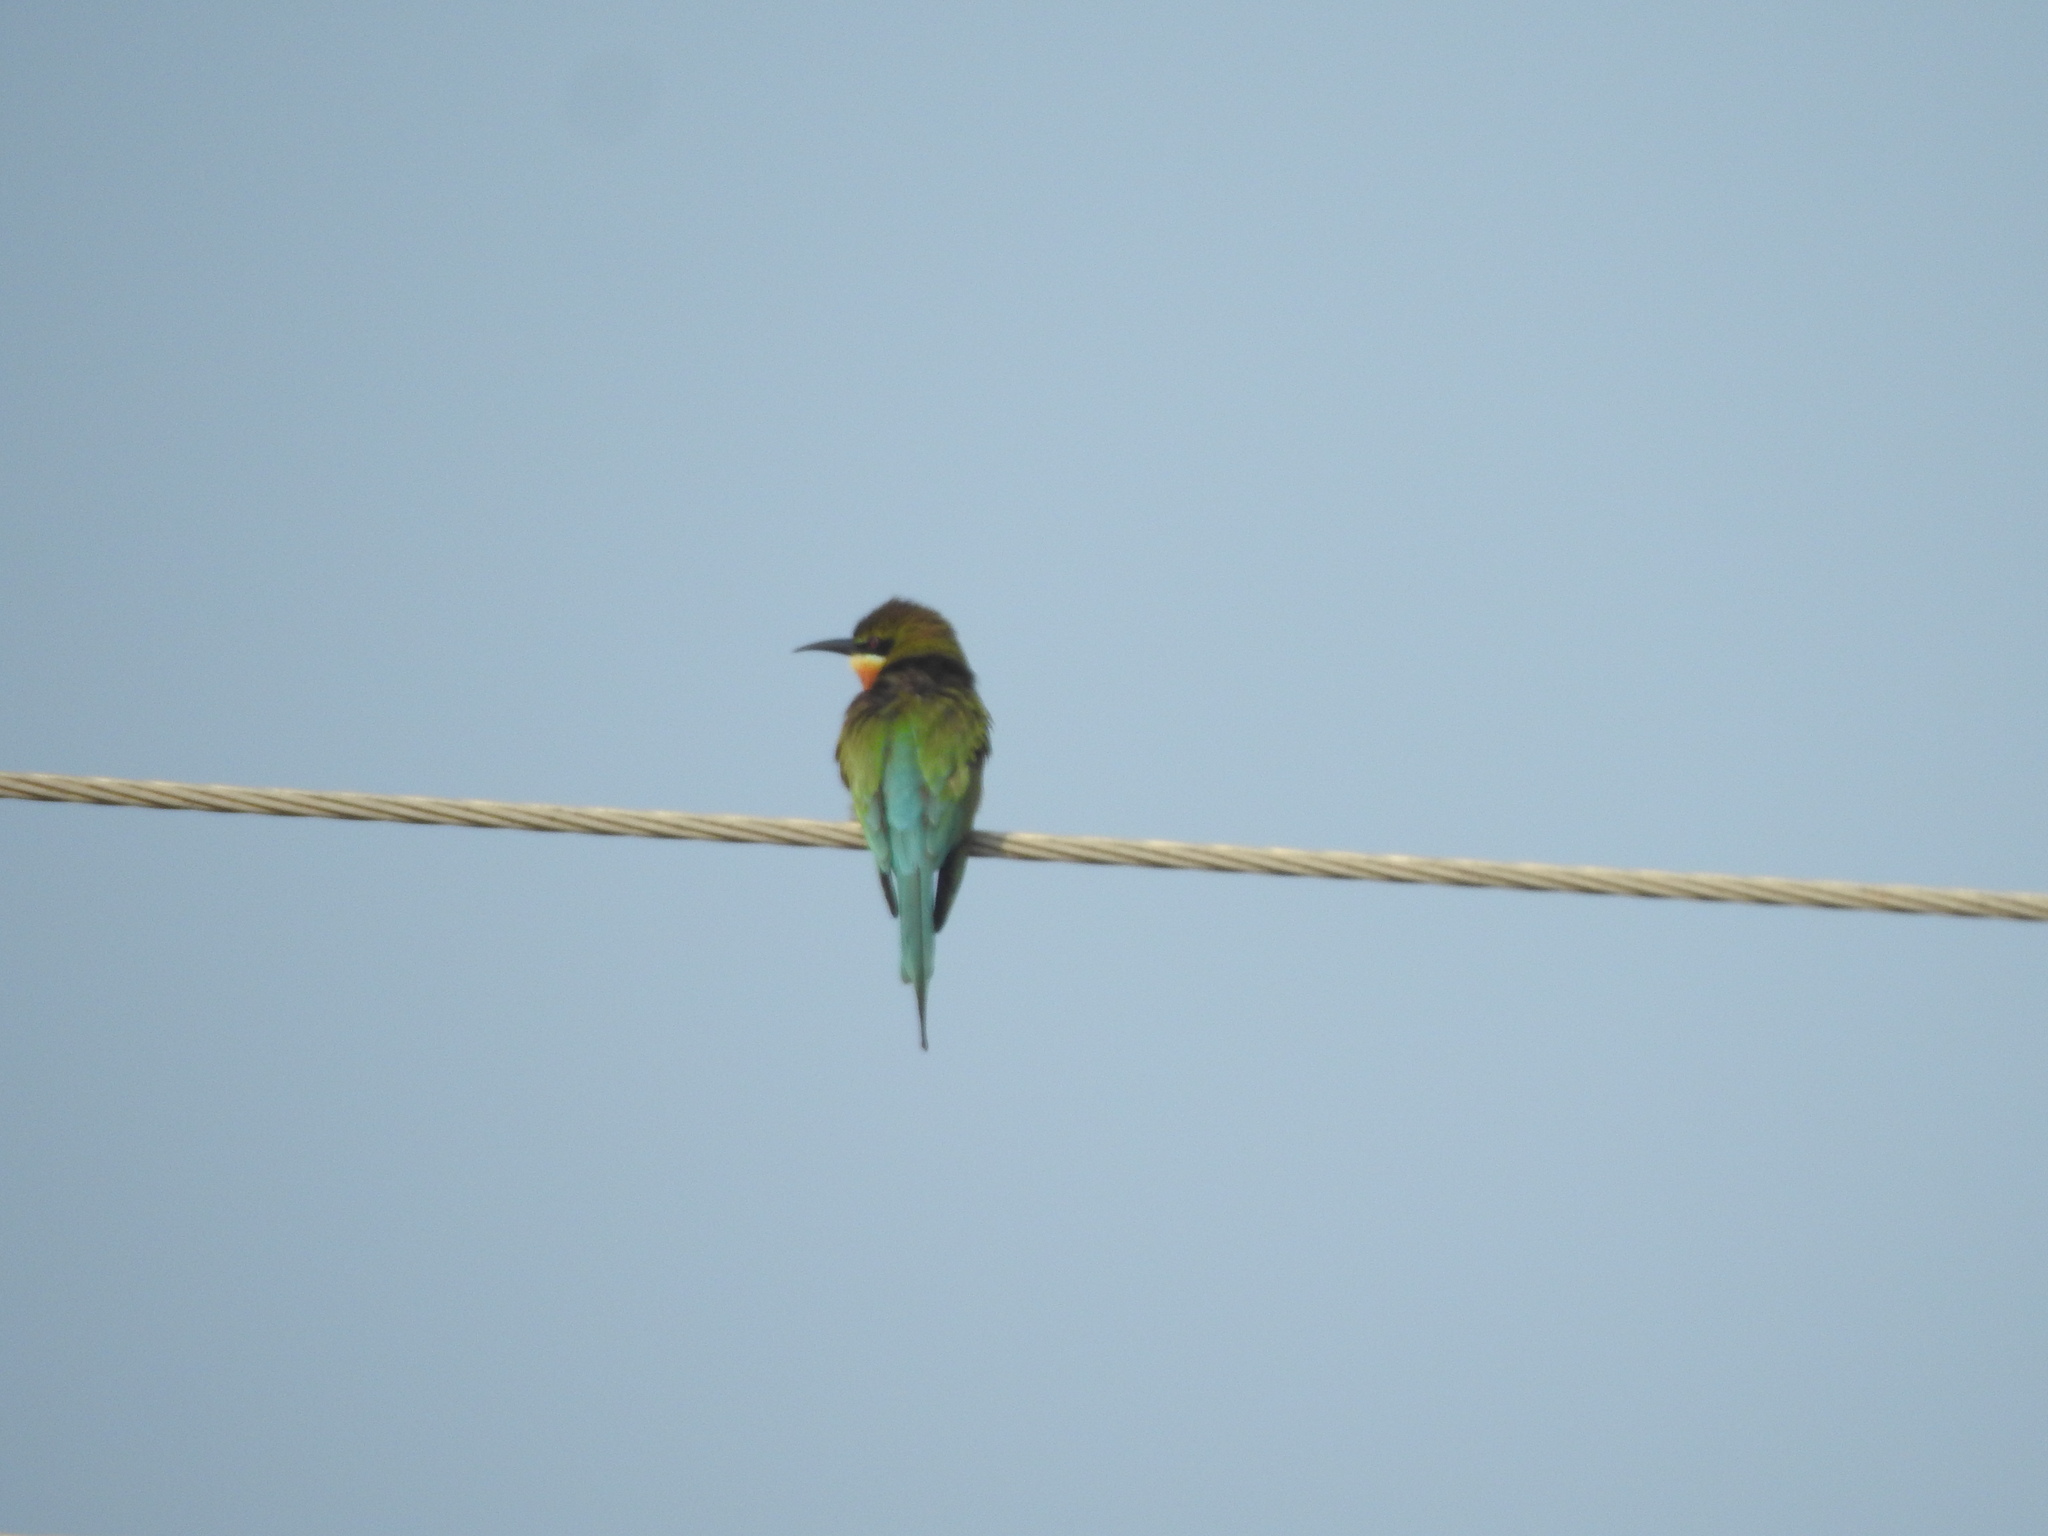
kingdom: Animalia
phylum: Chordata
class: Aves
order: Coraciiformes
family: Meropidae
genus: Merops
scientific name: Merops philippinus
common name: Blue-tailed bee-eater
